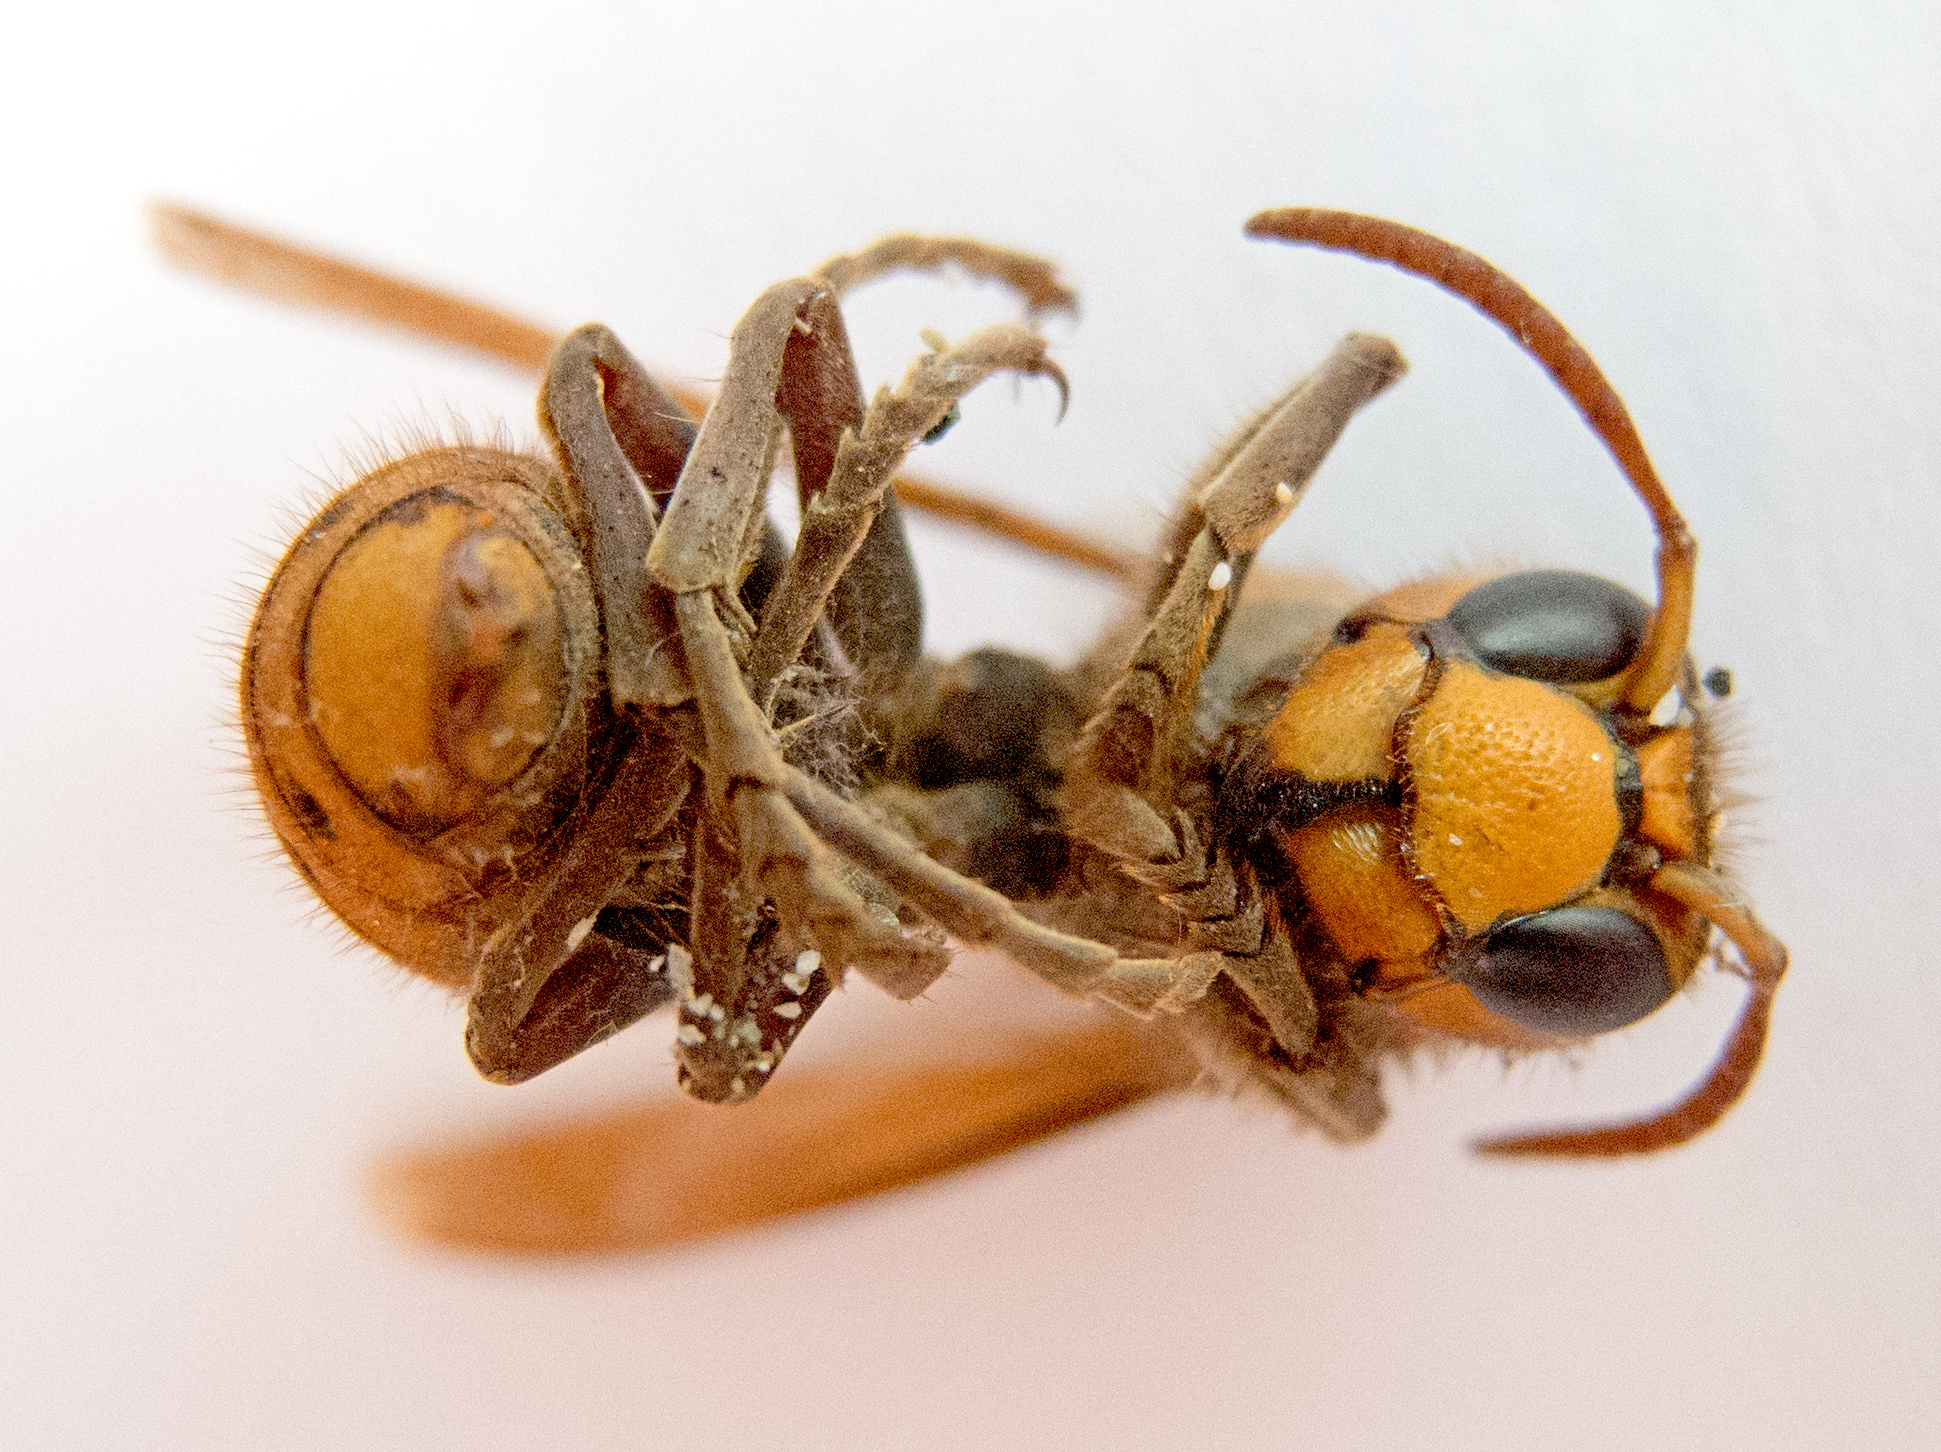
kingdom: Animalia
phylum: Arthropoda
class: Insecta
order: Hymenoptera
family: Vespidae
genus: Vespa
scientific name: Vespa crabro
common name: Hornet
